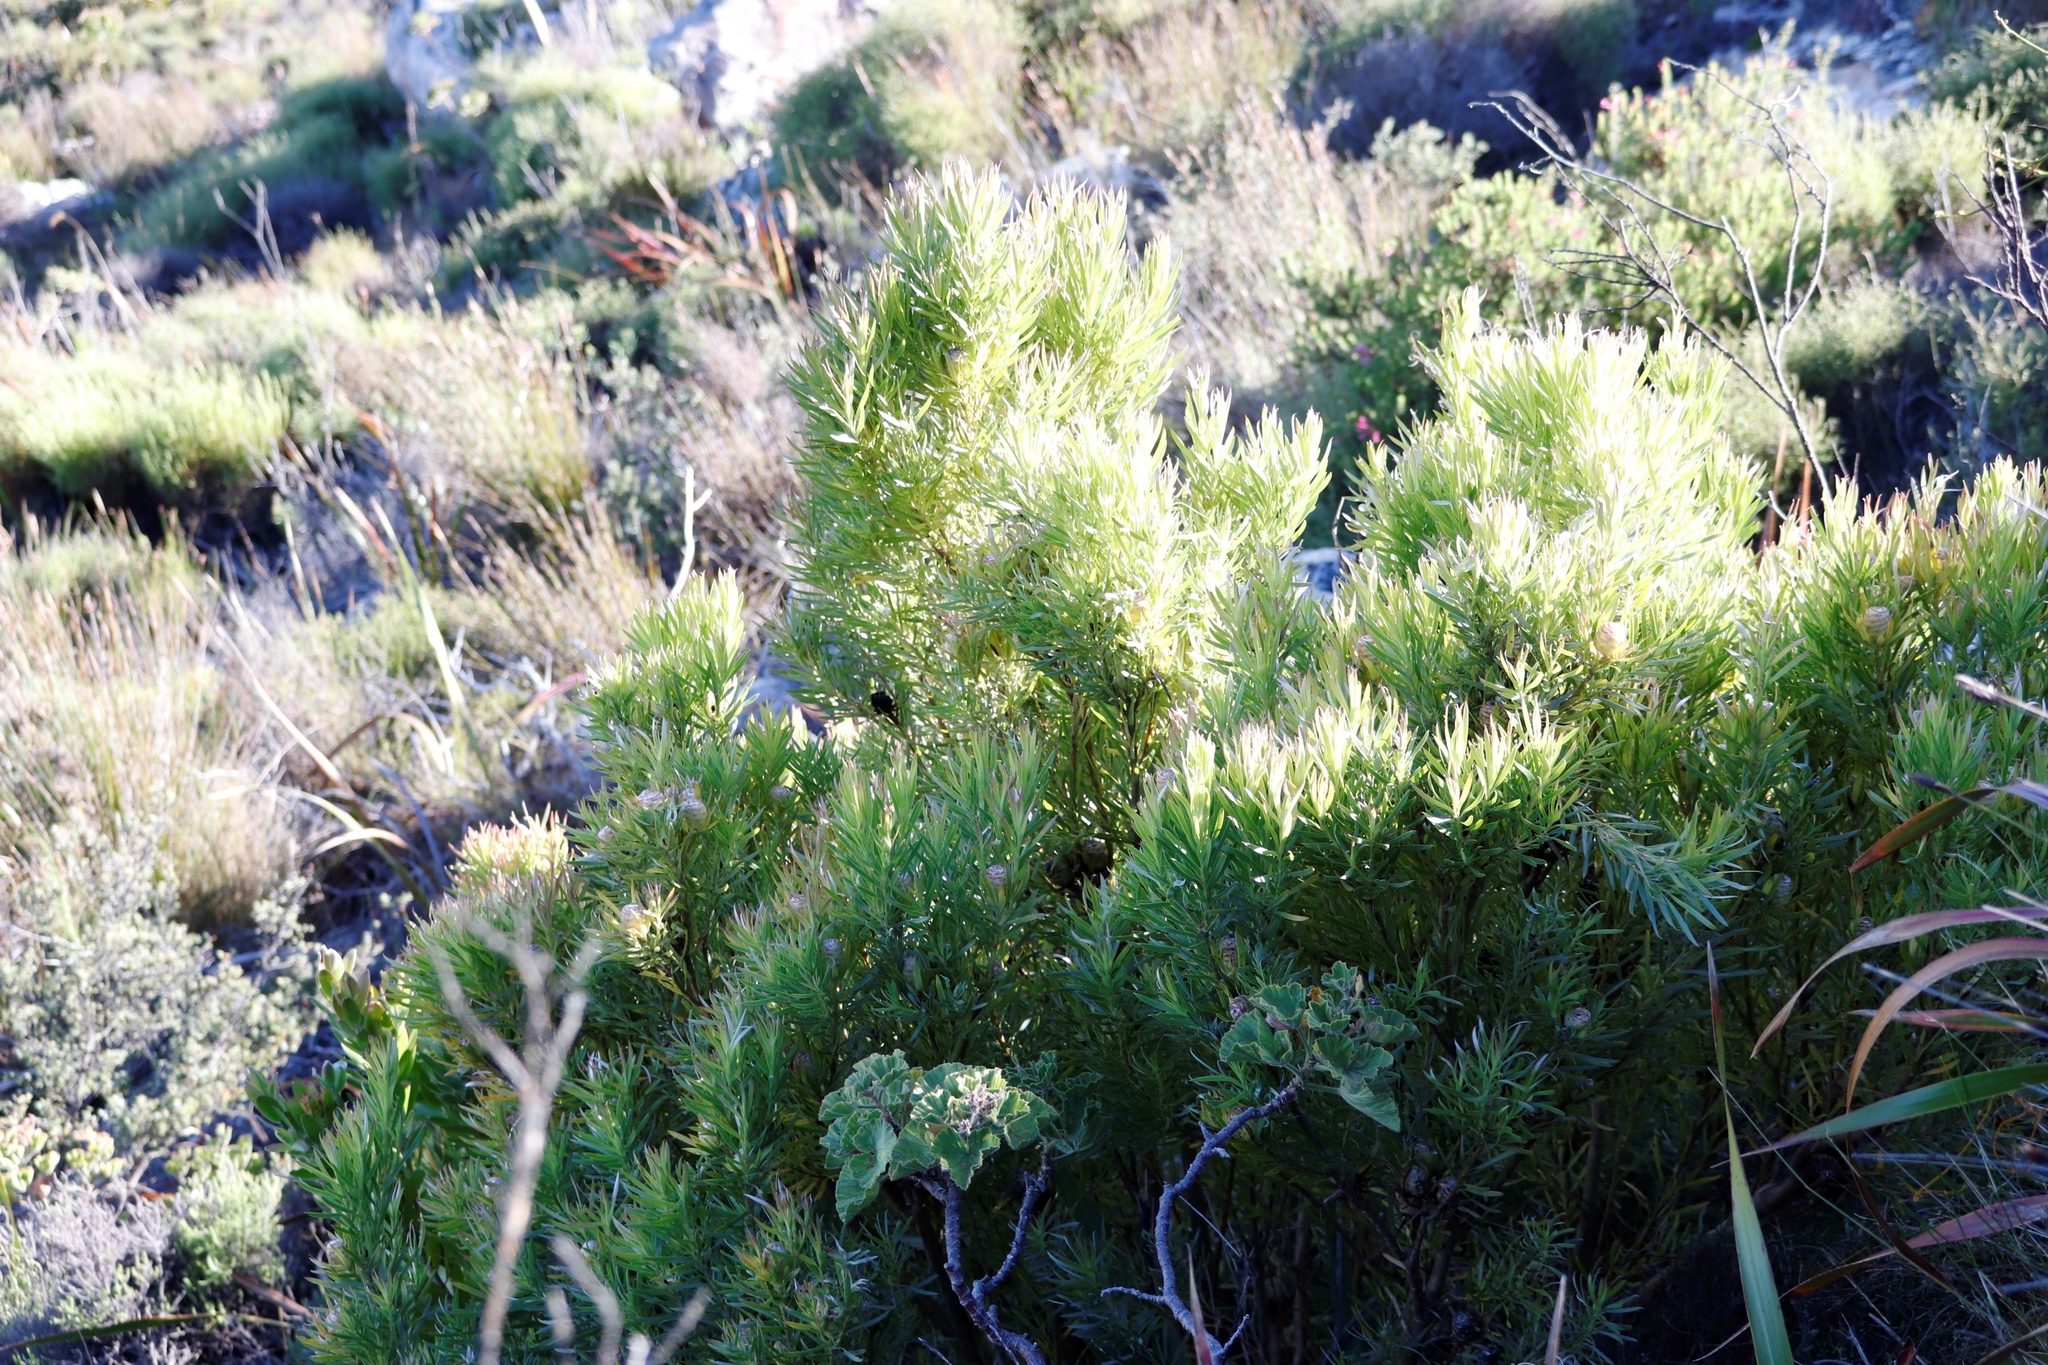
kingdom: Plantae
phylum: Tracheophyta
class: Magnoliopsida
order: Proteales
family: Proteaceae
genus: Leucadendron
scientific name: Leucadendron xanthoconus
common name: Sickle-leaf conebush
